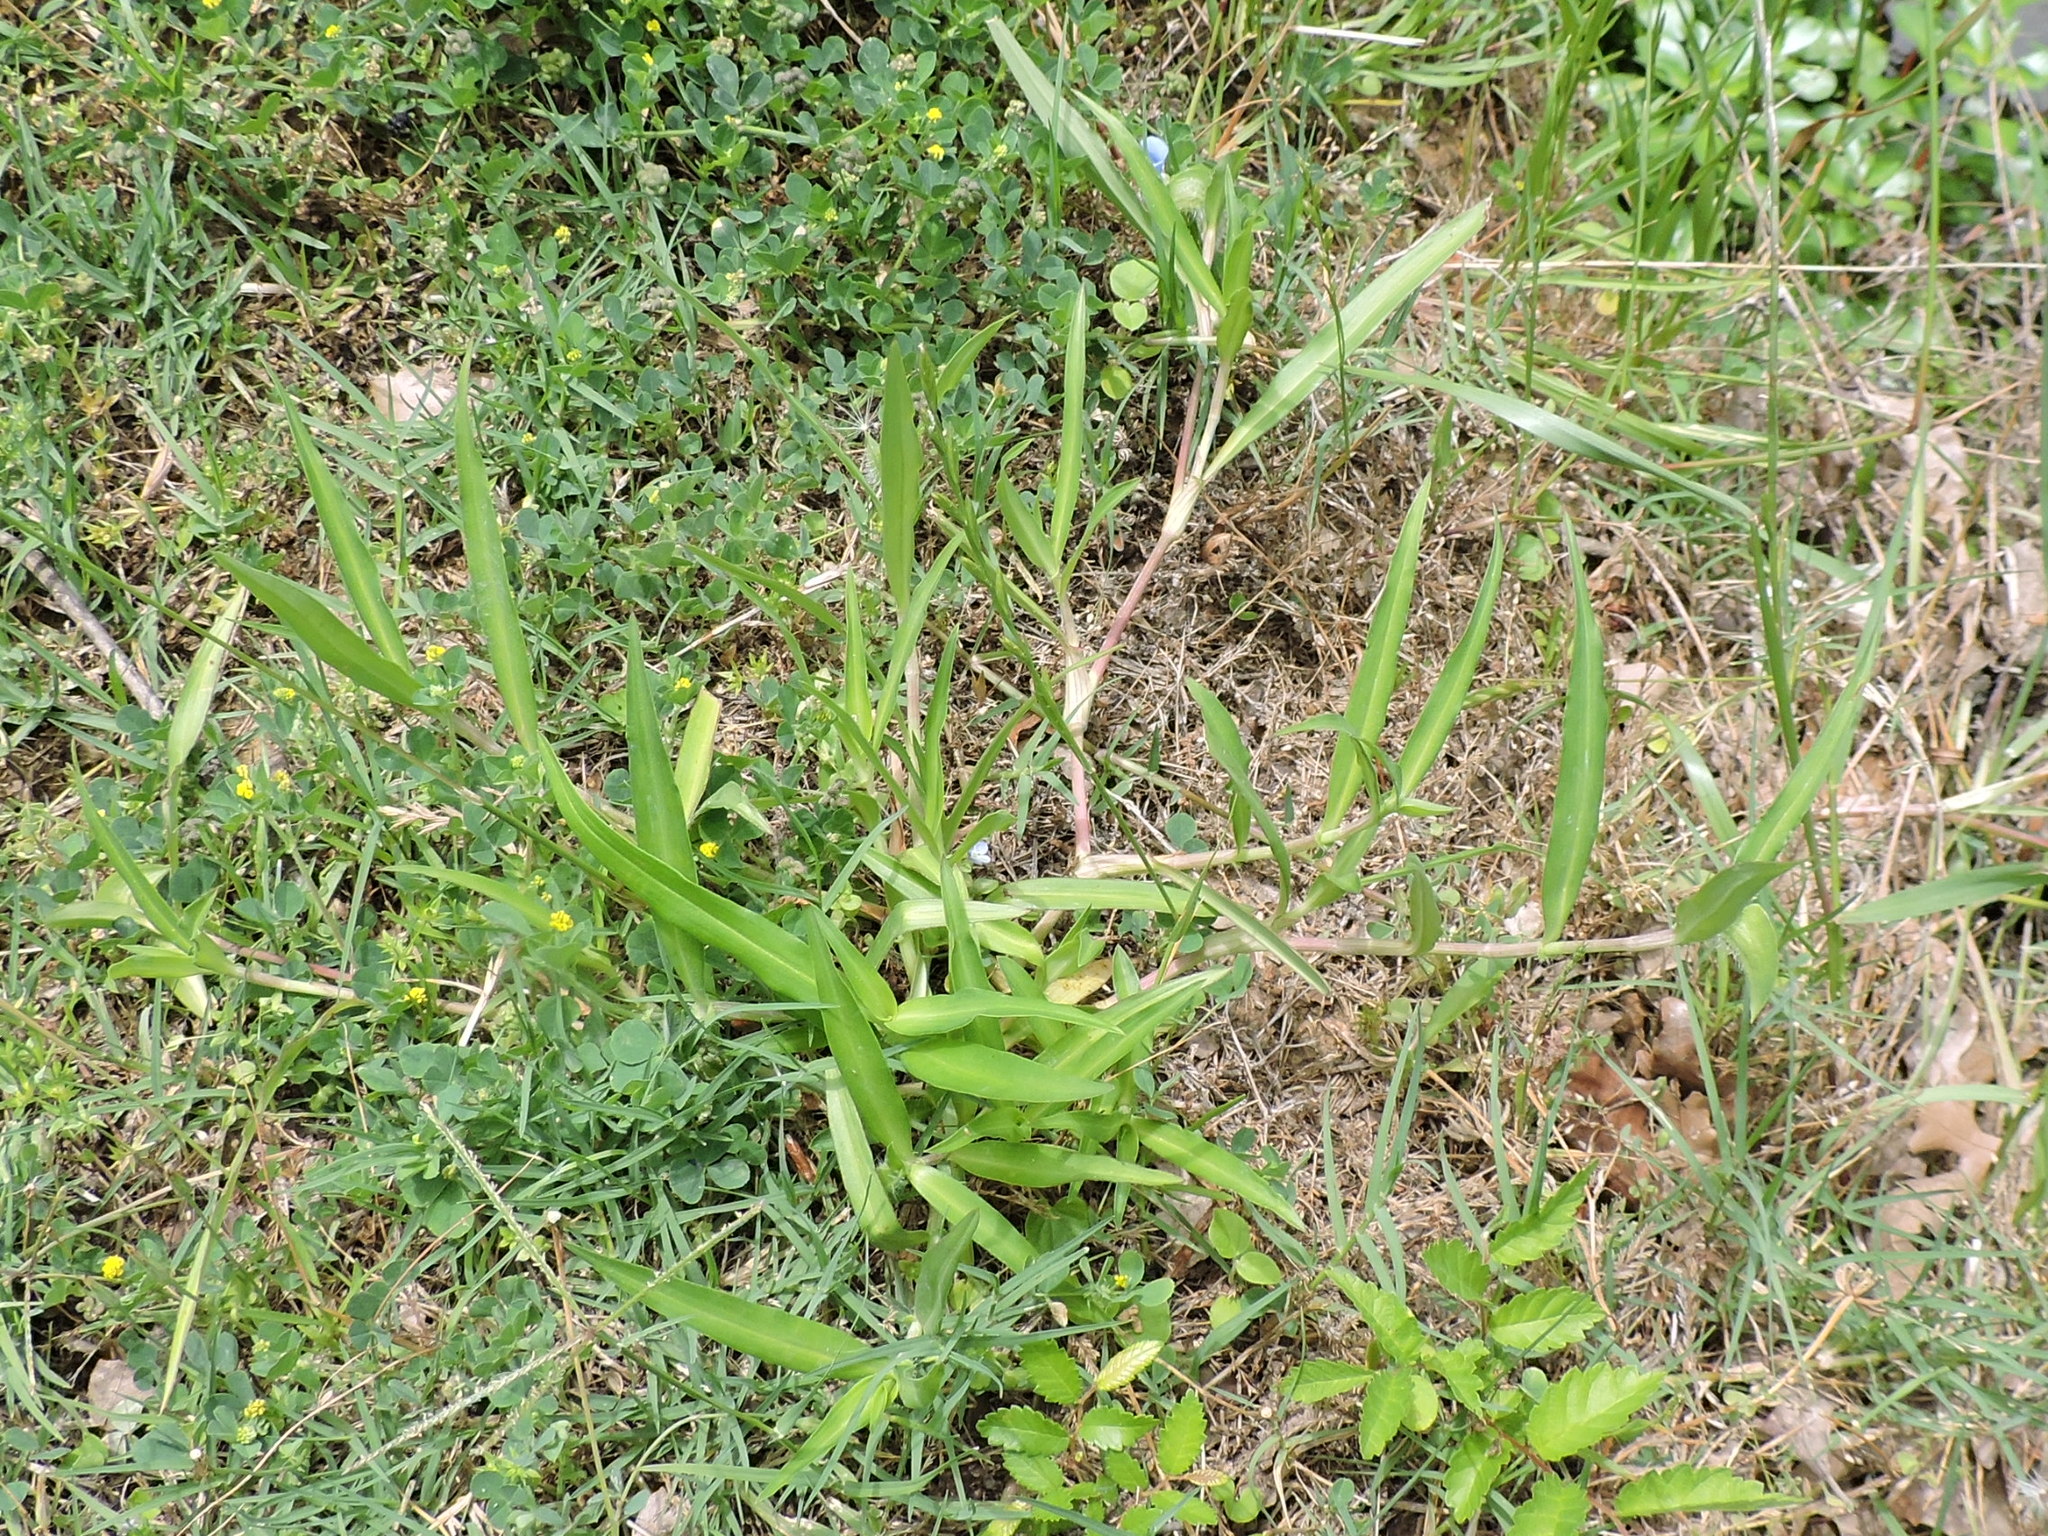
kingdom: Plantae
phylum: Tracheophyta
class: Liliopsida
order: Commelinales
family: Commelinaceae
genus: Commelina
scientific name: Commelina erecta
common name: Blousel blommetjie
